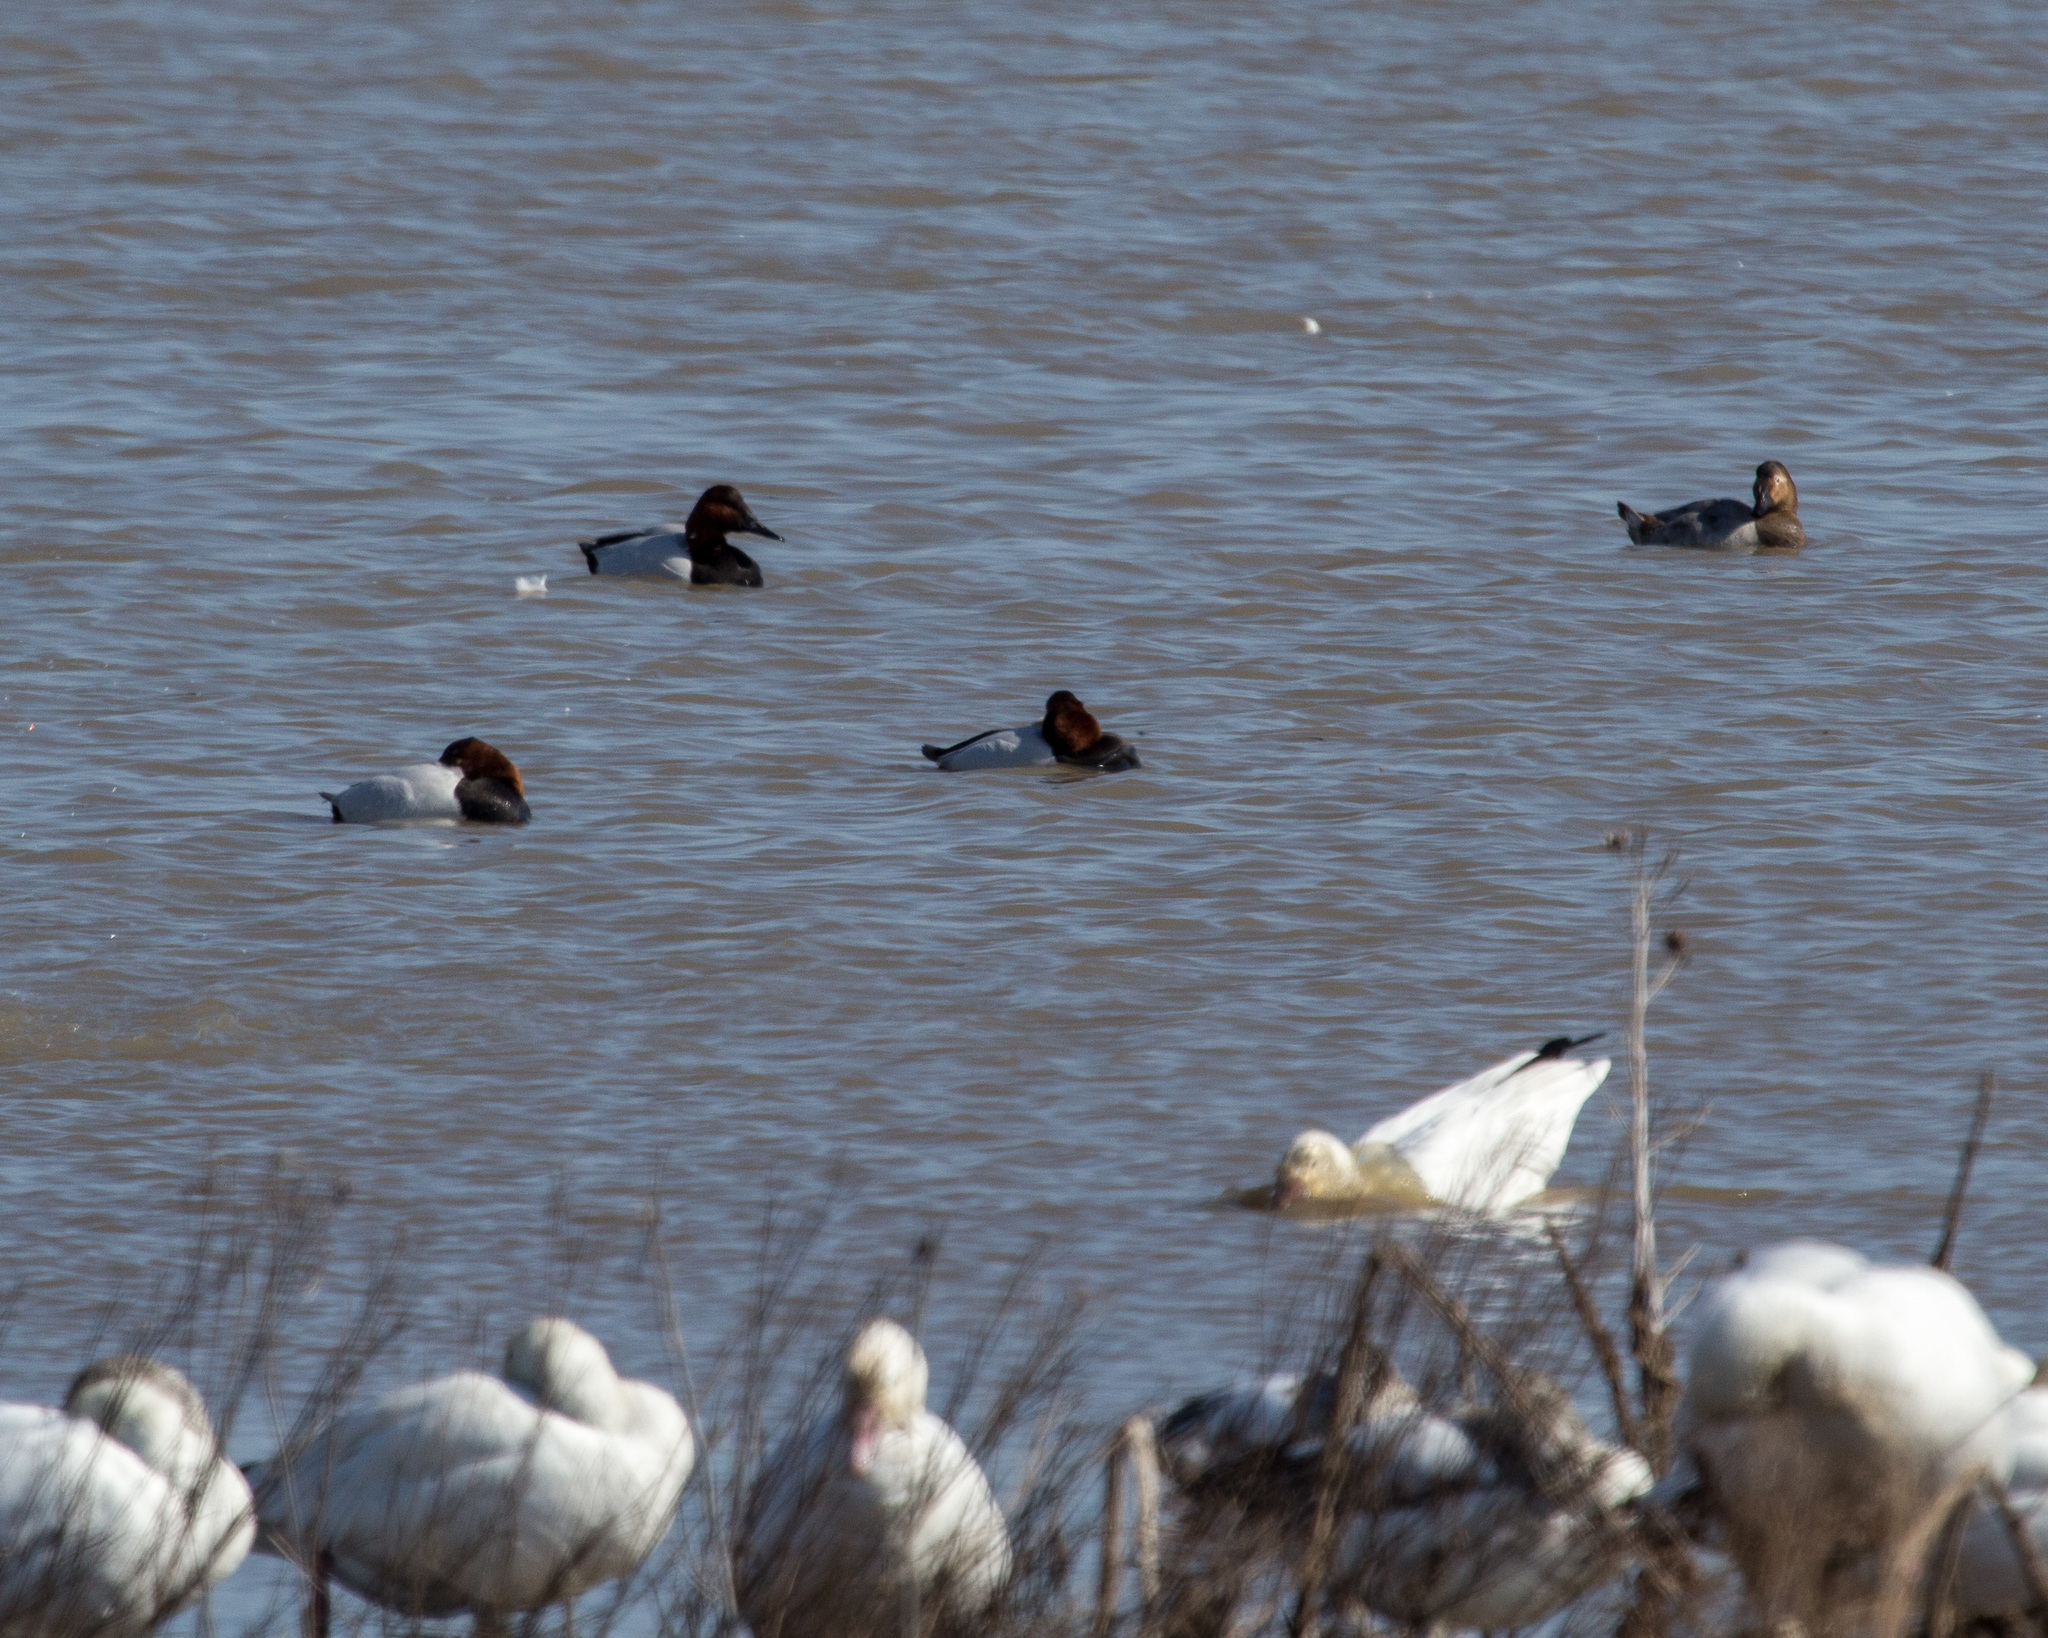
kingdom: Animalia
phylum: Chordata
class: Aves
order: Anseriformes
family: Anatidae
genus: Aythya
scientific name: Aythya valisineria
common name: Canvasback
